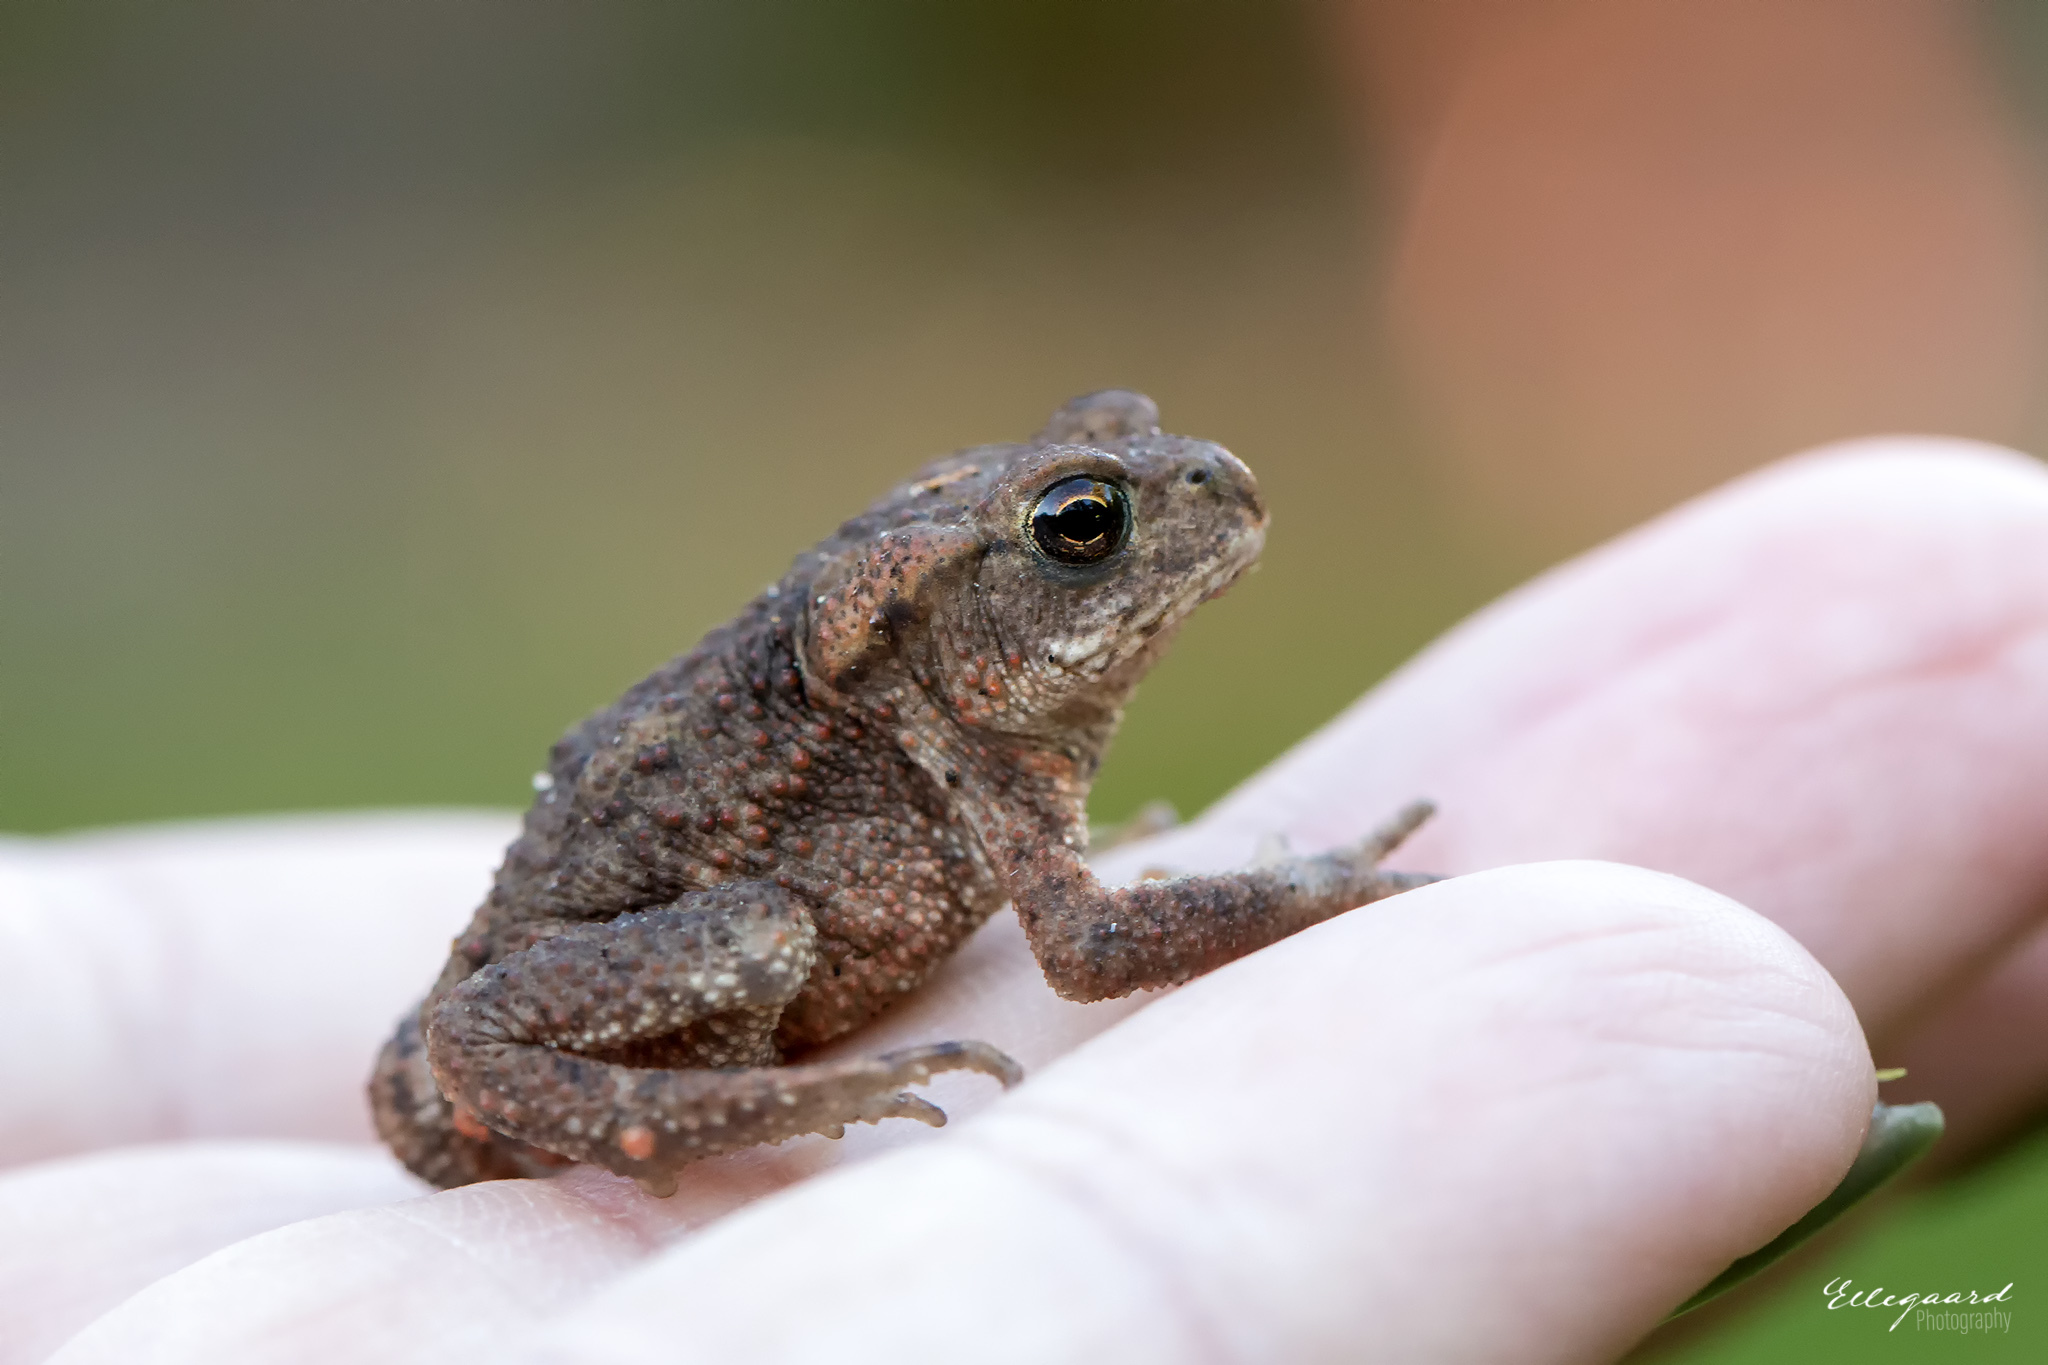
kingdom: Animalia
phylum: Chordata
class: Amphibia
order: Anura
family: Bufonidae
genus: Bufo
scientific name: Bufo bufo
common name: Common toad
